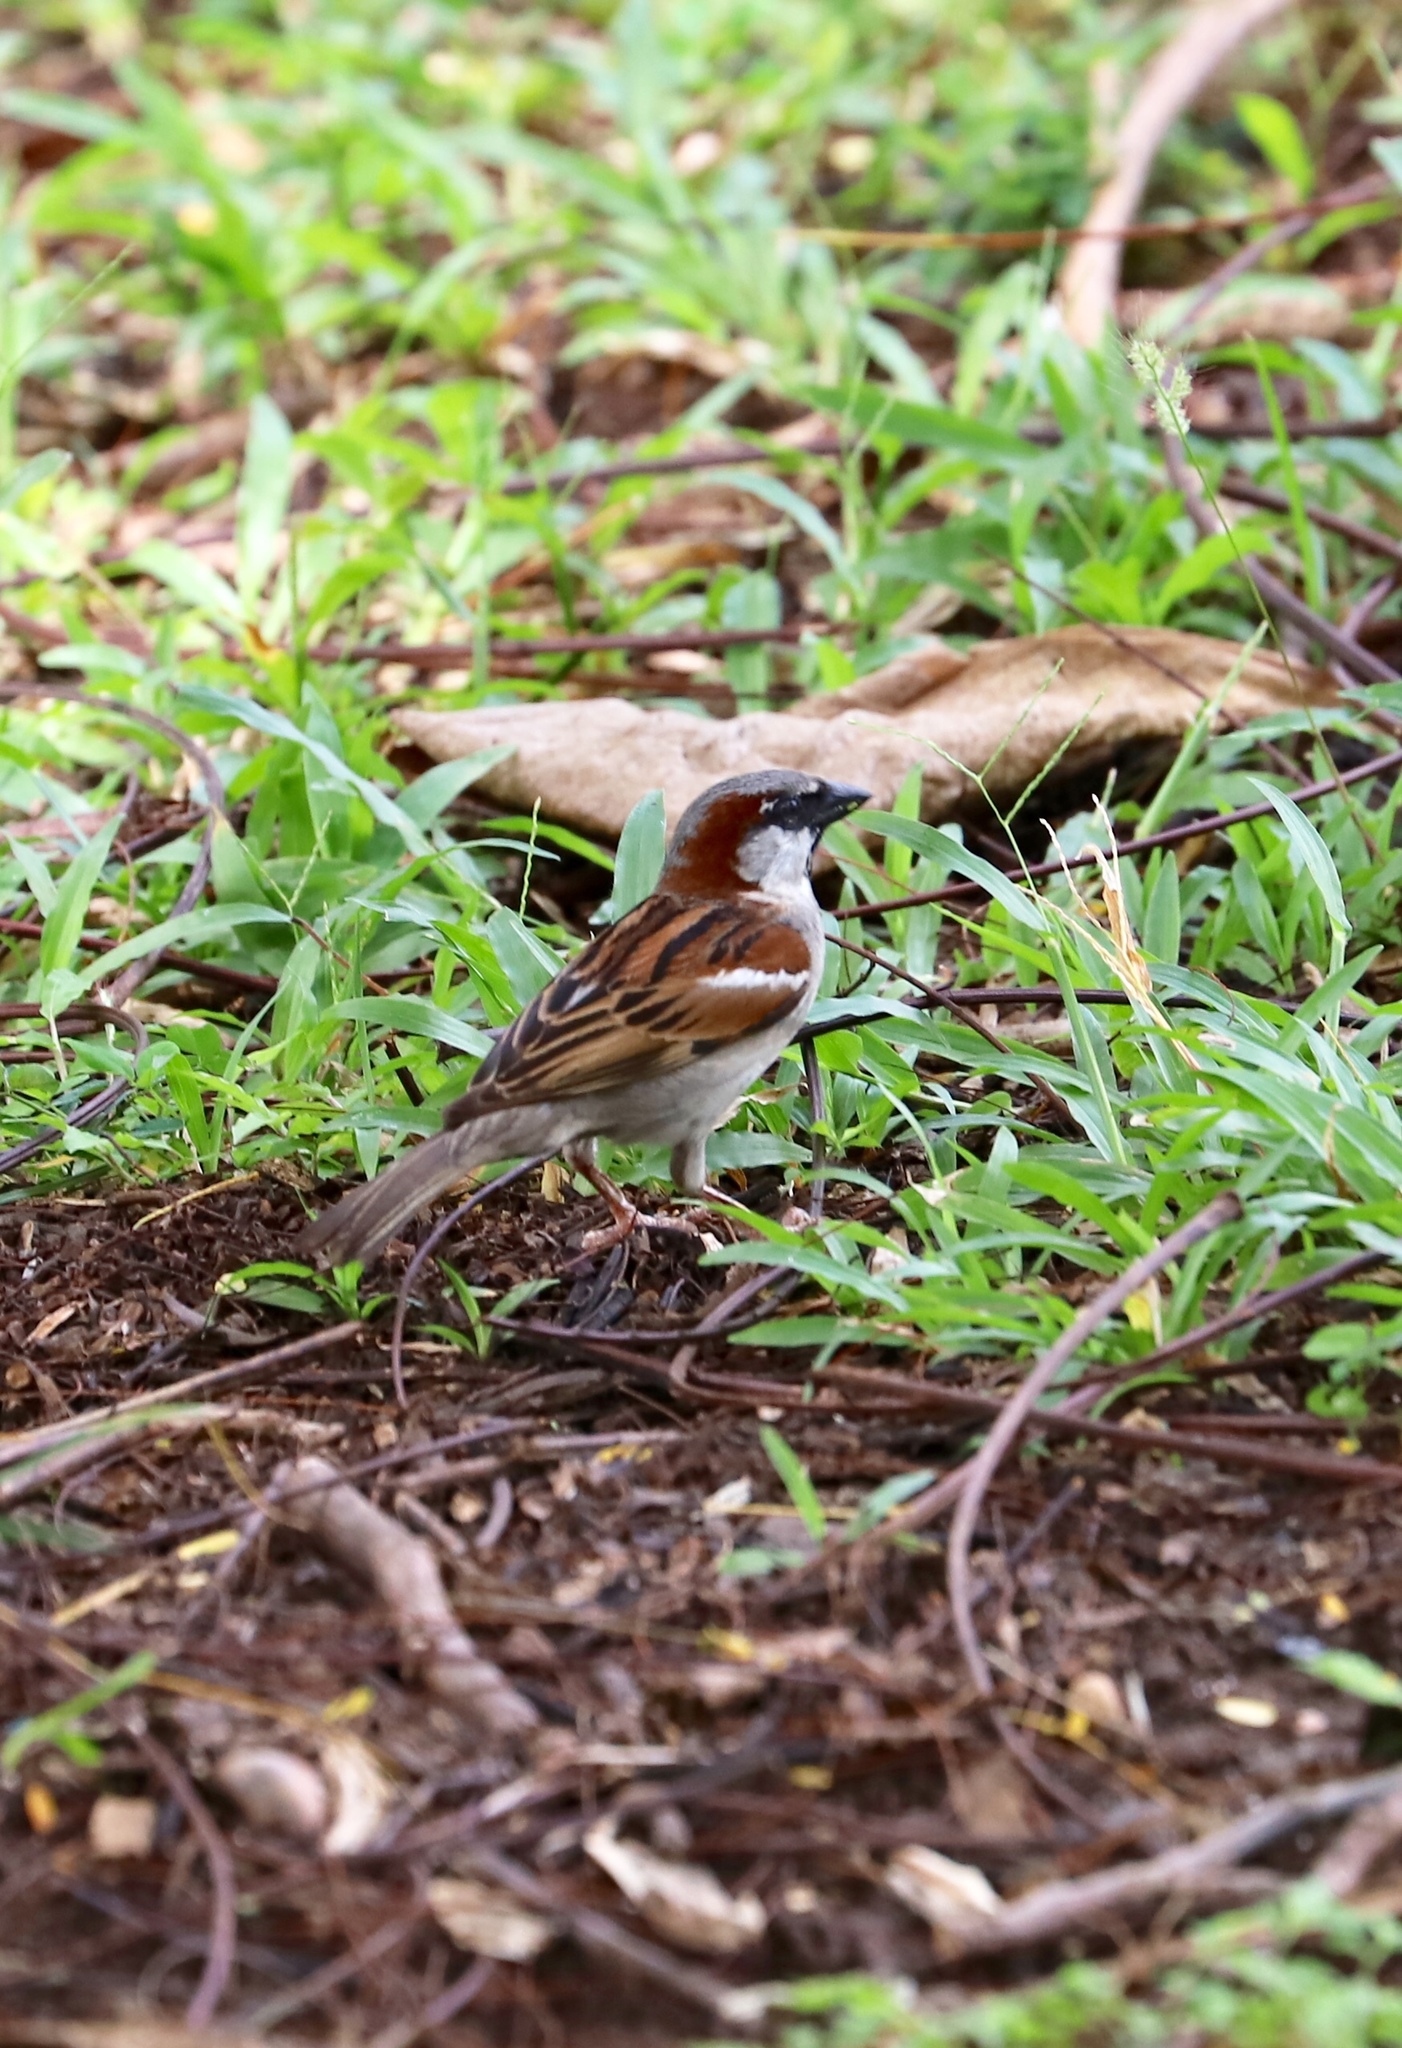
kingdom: Animalia
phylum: Chordata
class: Aves
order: Passeriformes
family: Passeridae
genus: Passer
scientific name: Passer domesticus
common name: House sparrow
